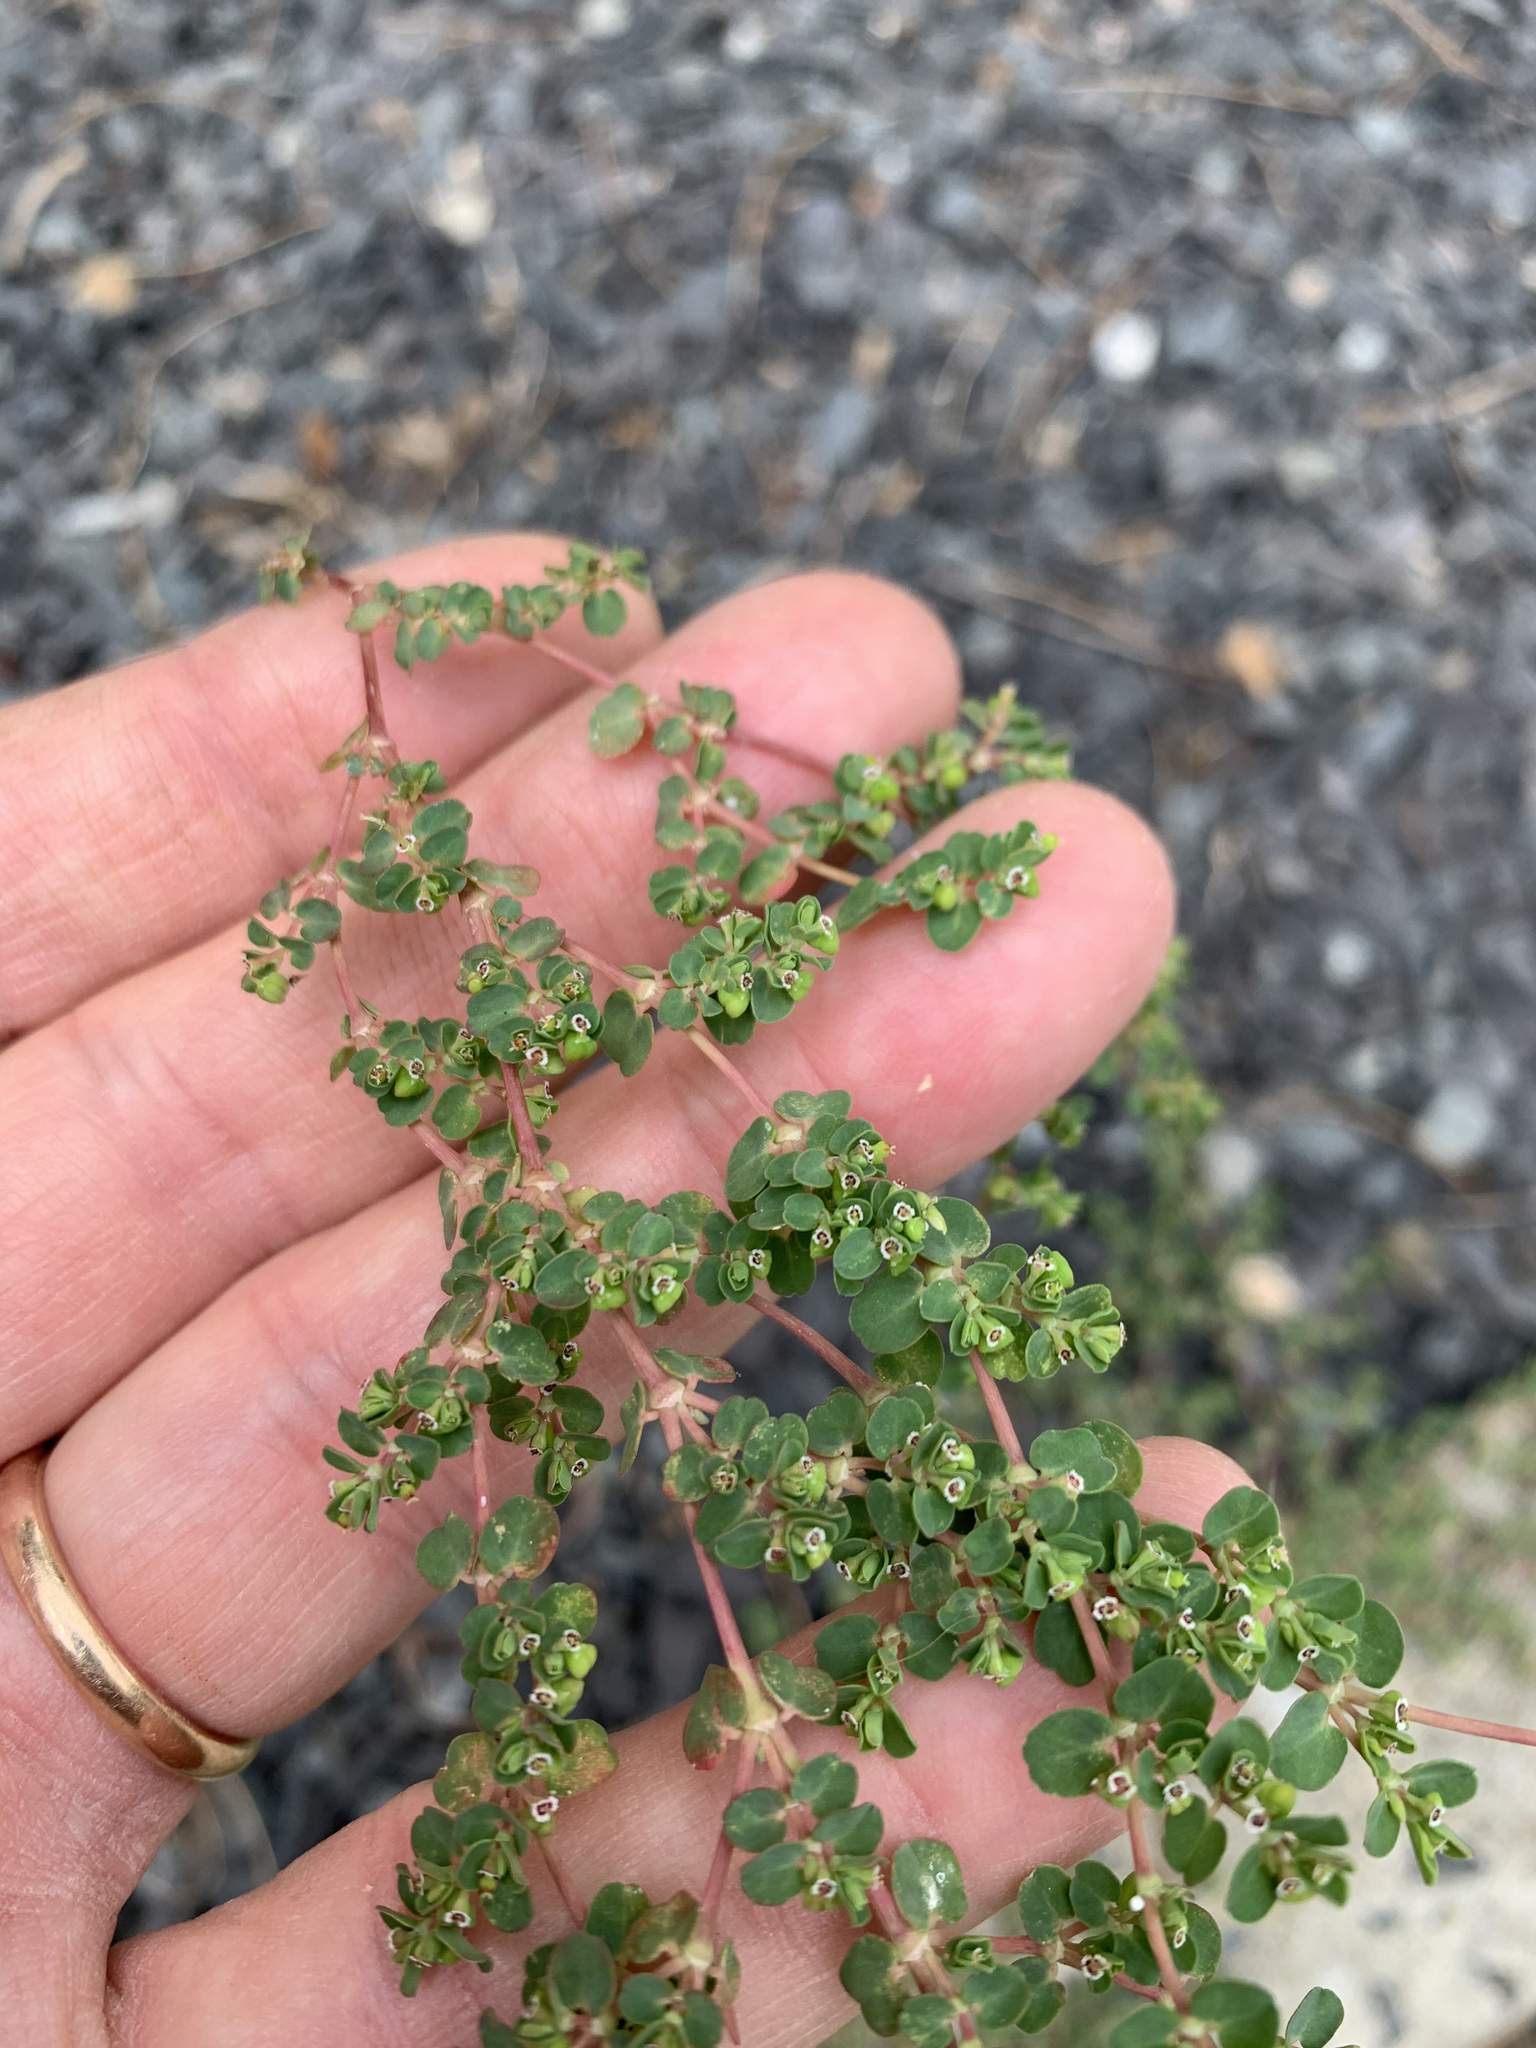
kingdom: Plantae
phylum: Tracheophyta
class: Magnoliopsida
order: Malpighiales
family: Euphorbiaceae
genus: Euphorbia
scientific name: Euphorbia serpens
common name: Matted sandmat
